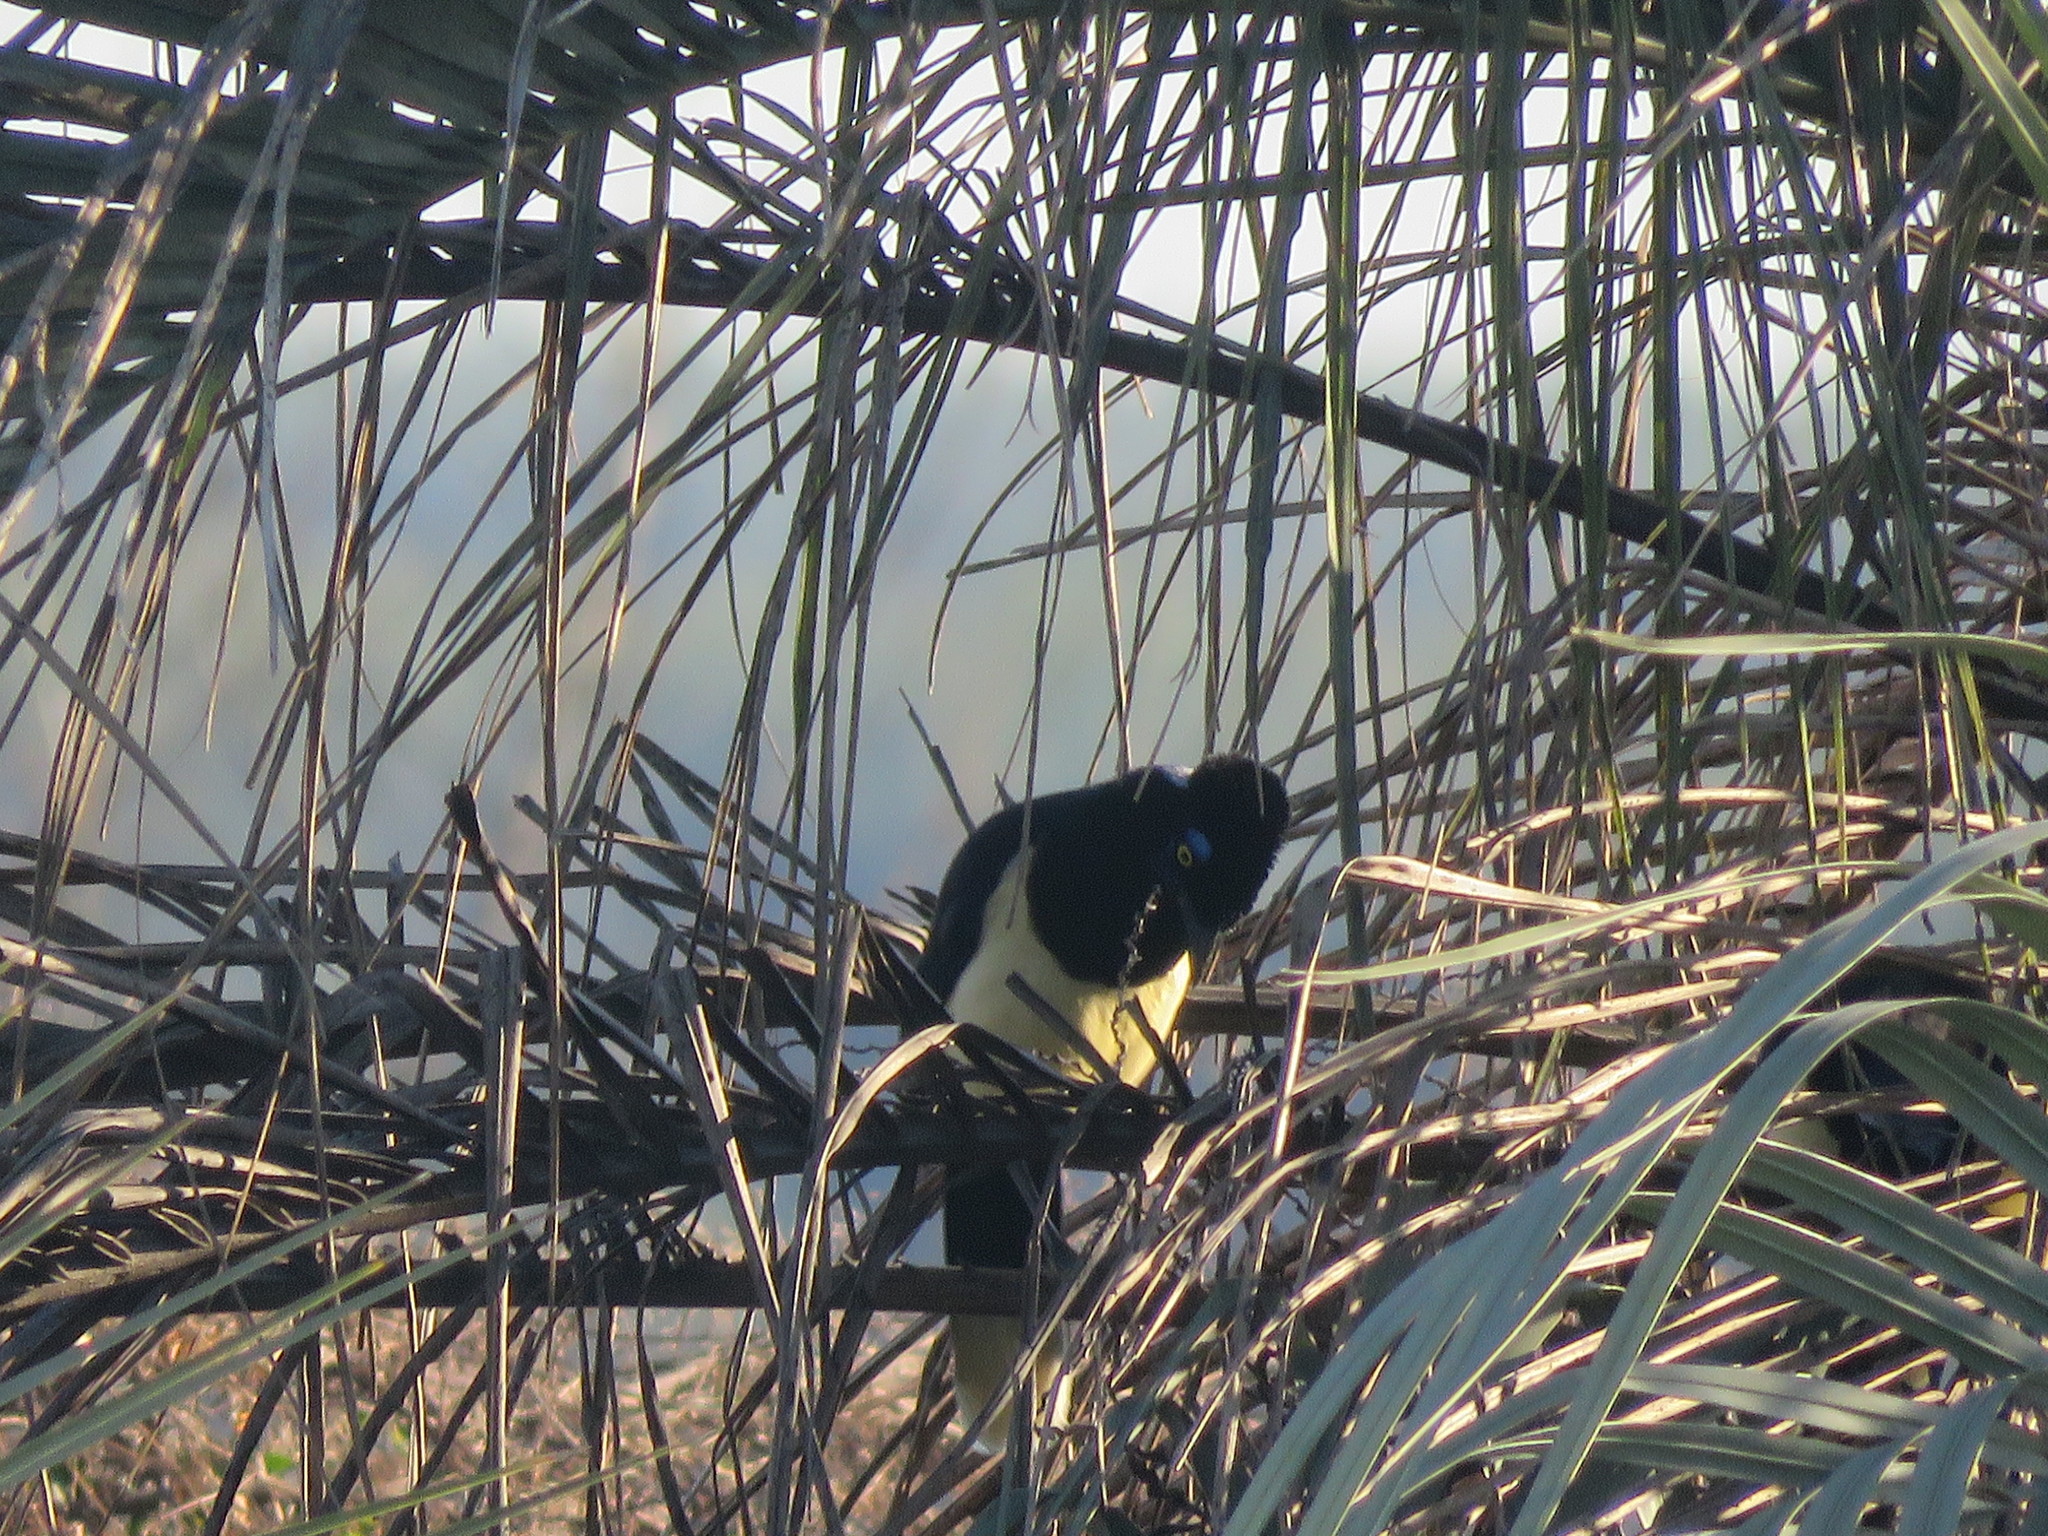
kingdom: Animalia
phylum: Chordata
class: Aves
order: Passeriformes
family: Corvidae
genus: Cyanocorax
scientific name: Cyanocorax chrysops
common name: Plush-crested jay
